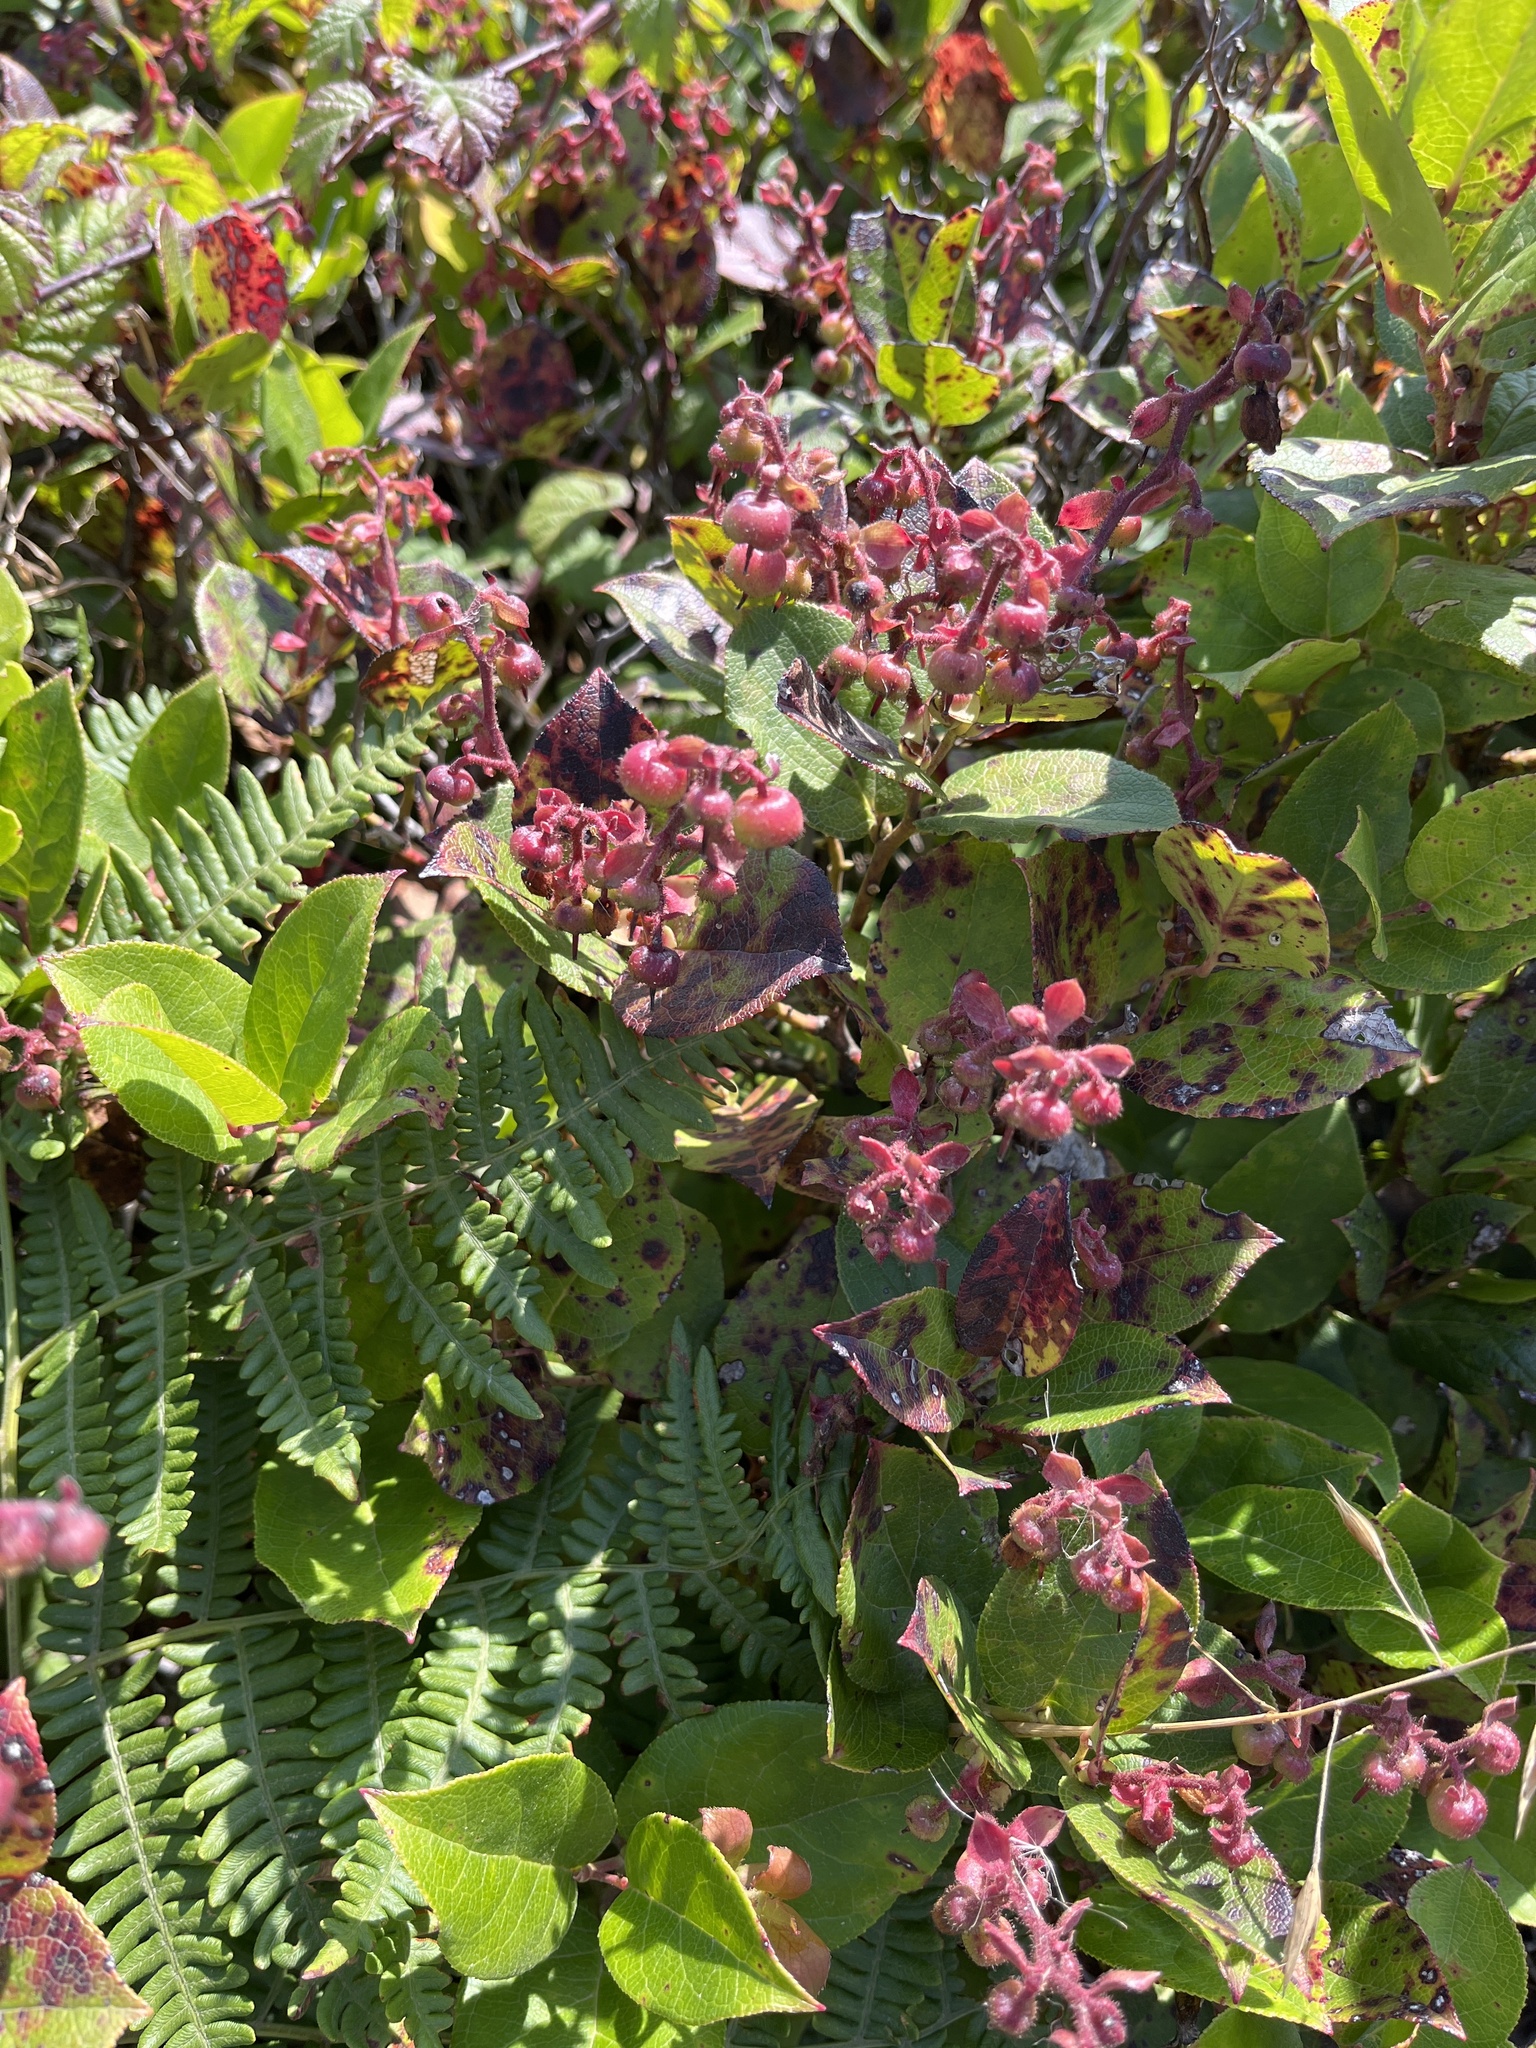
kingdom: Plantae
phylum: Tracheophyta
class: Magnoliopsida
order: Ericales
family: Ericaceae
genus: Gaultheria
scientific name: Gaultheria shallon
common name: Shallon
